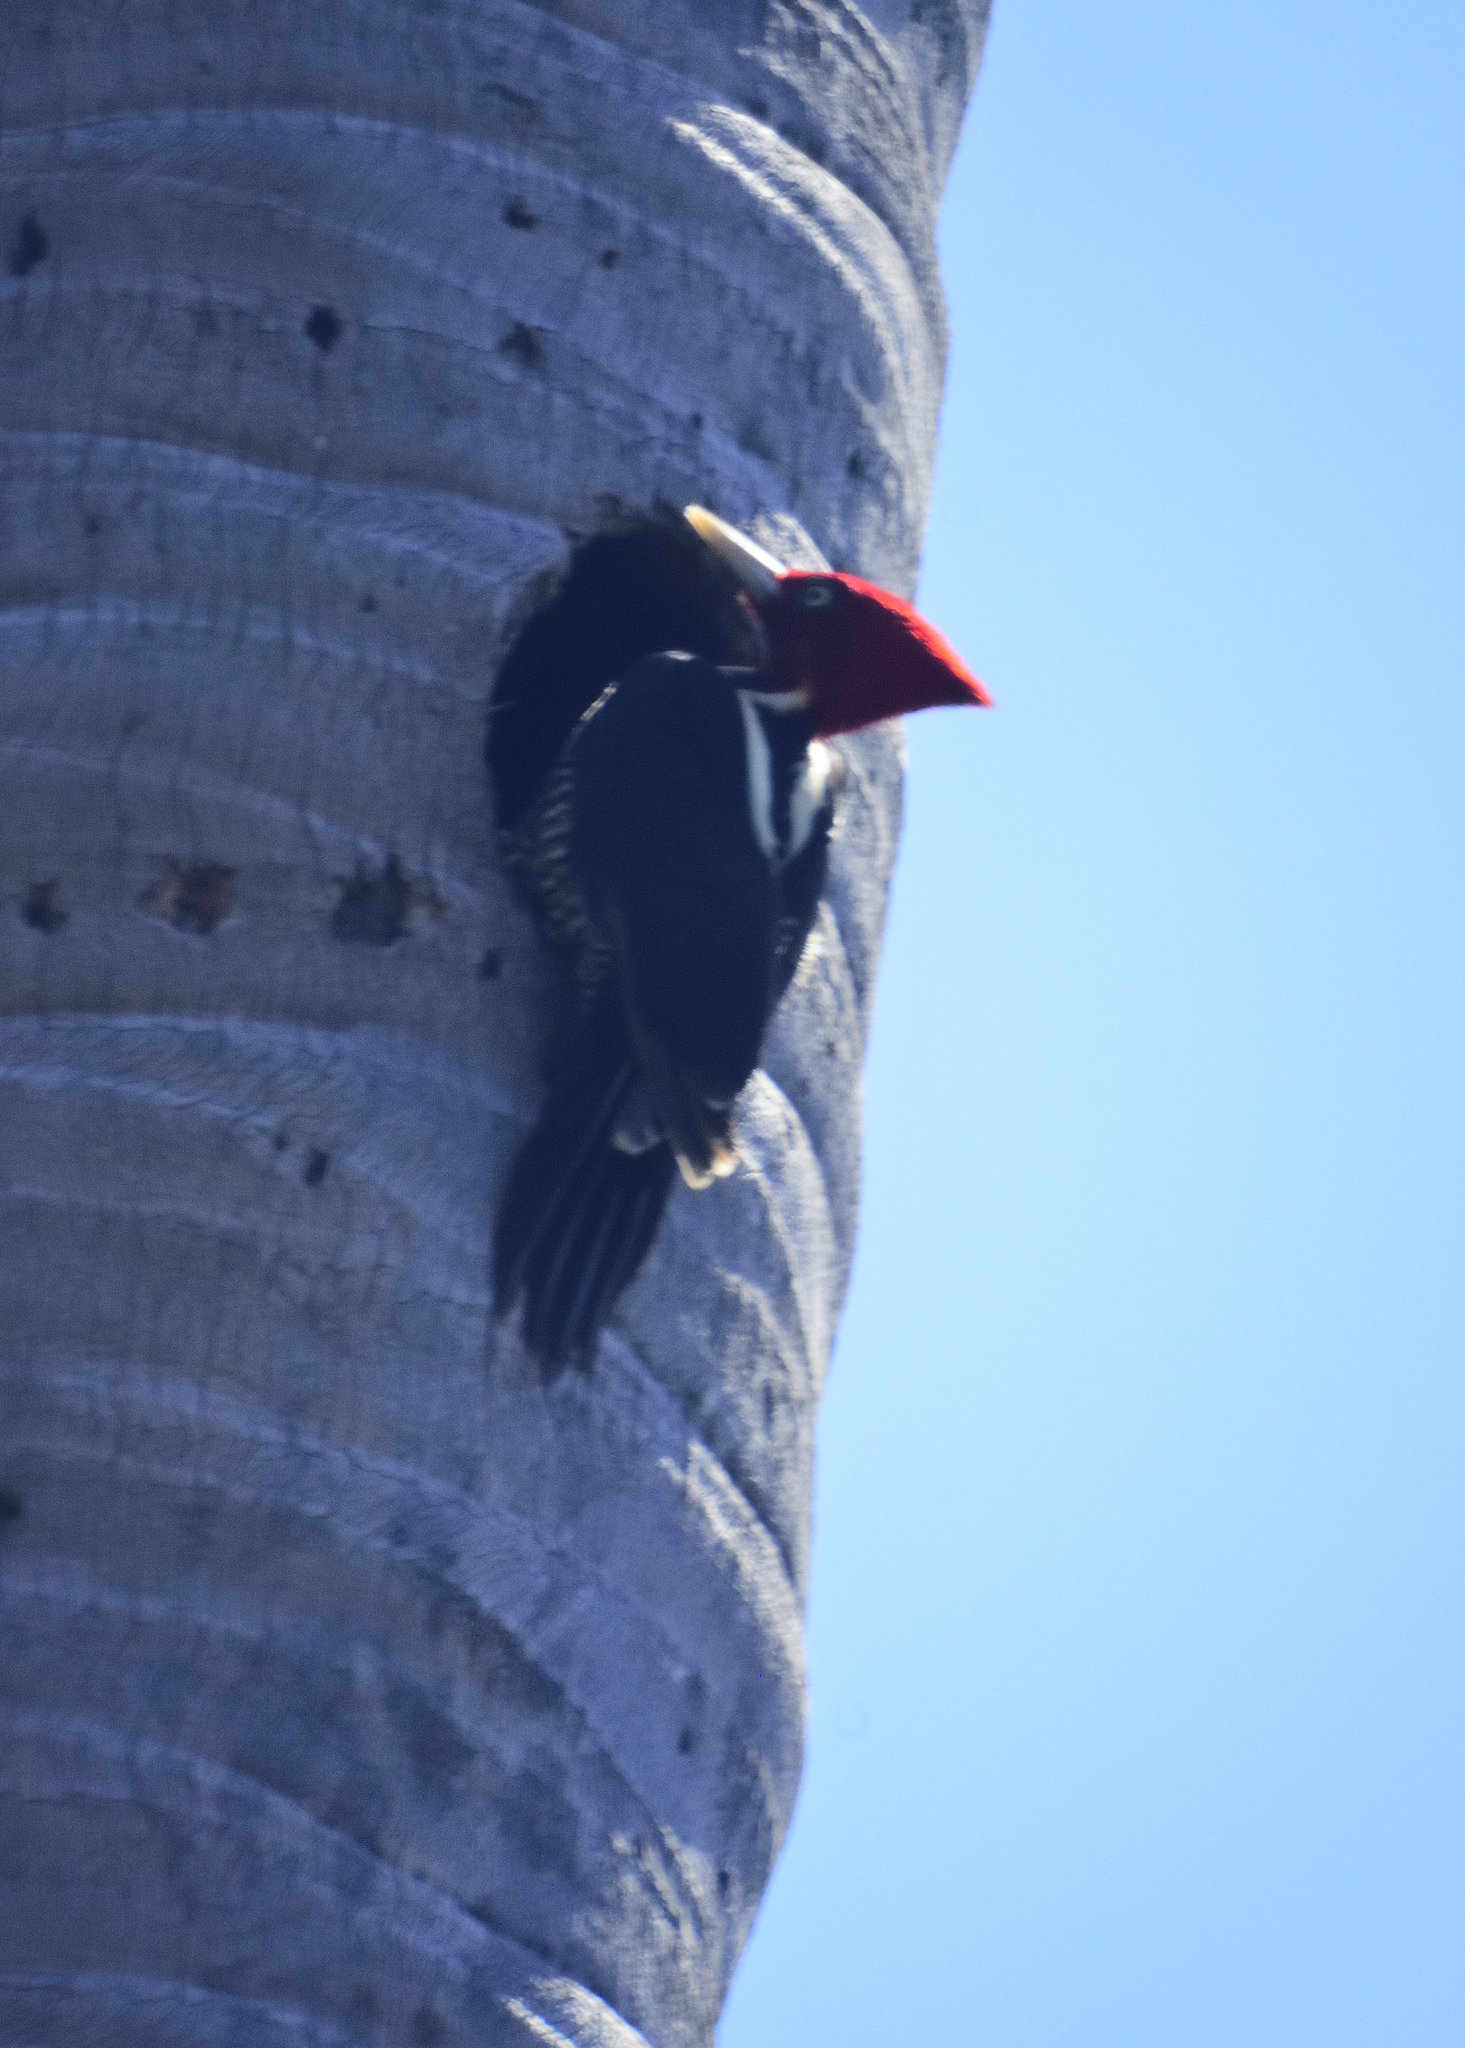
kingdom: Animalia
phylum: Chordata
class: Aves
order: Piciformes
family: Picidae
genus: Campephilus
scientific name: Campephilus guatemalensis
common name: Pale-billed woodpecker
